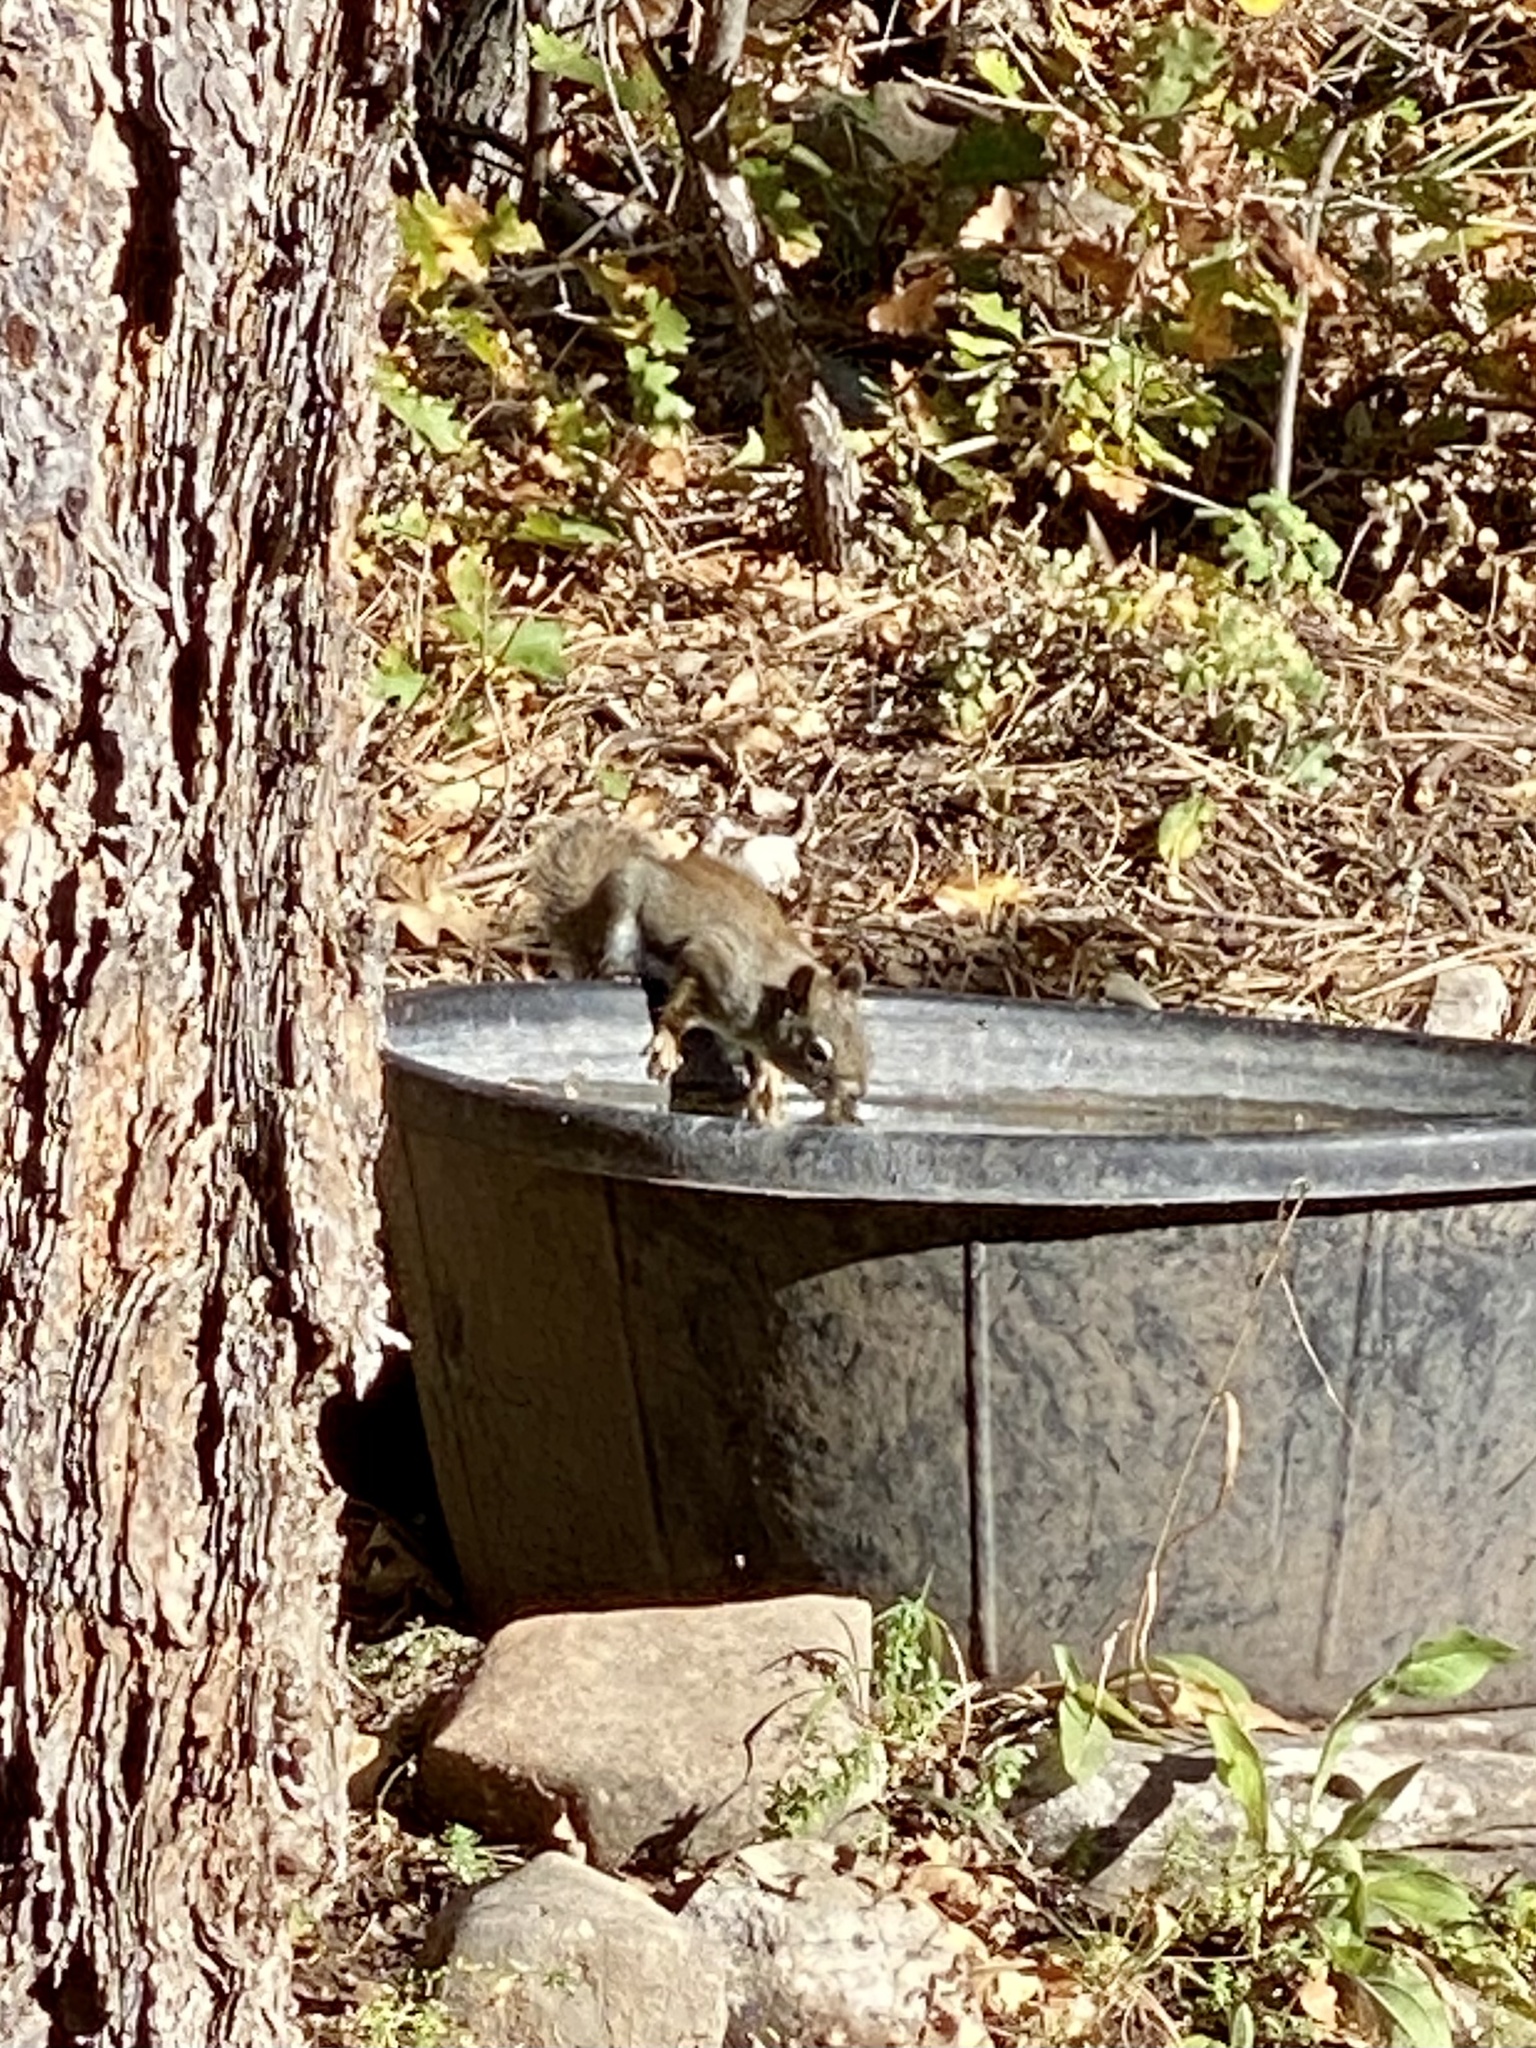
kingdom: Animalia
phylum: Chordata
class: Mammalia
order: Rodentia
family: Sciuridae
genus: Tamiasciurus
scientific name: Tamiasciurus hudsonicus
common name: Red squirrel
